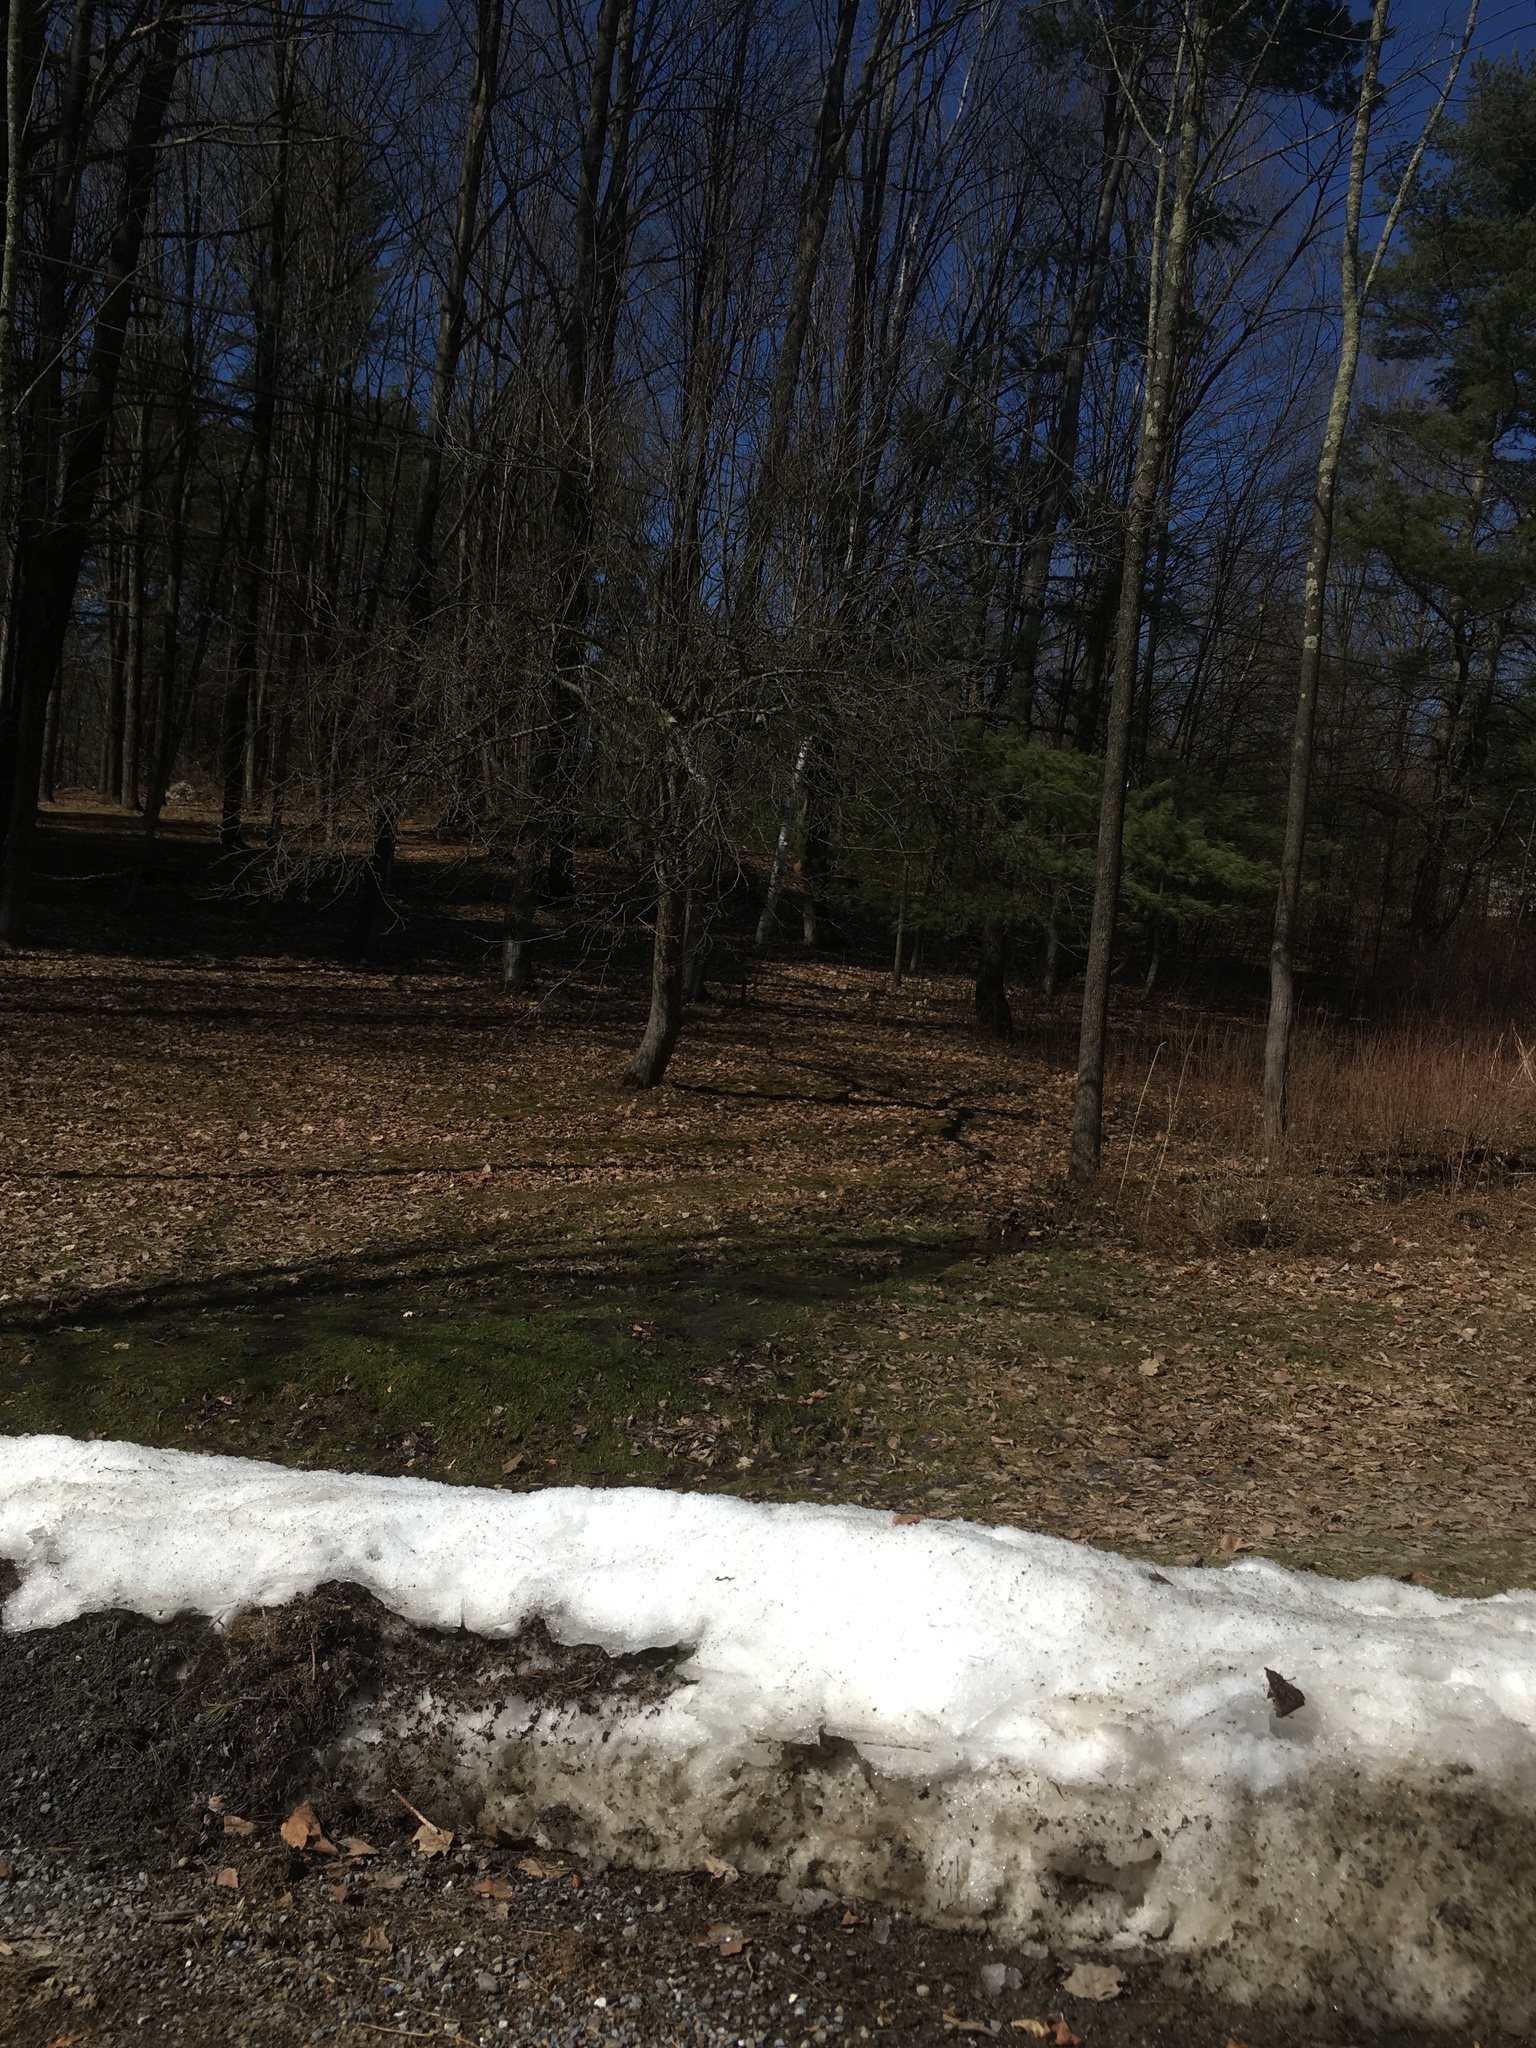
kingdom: Plantae
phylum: Tracheophyta
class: Pinopsida
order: Pinales
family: Pinaceae
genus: Pinus
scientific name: Pinus strobus
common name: Weymouth pine
